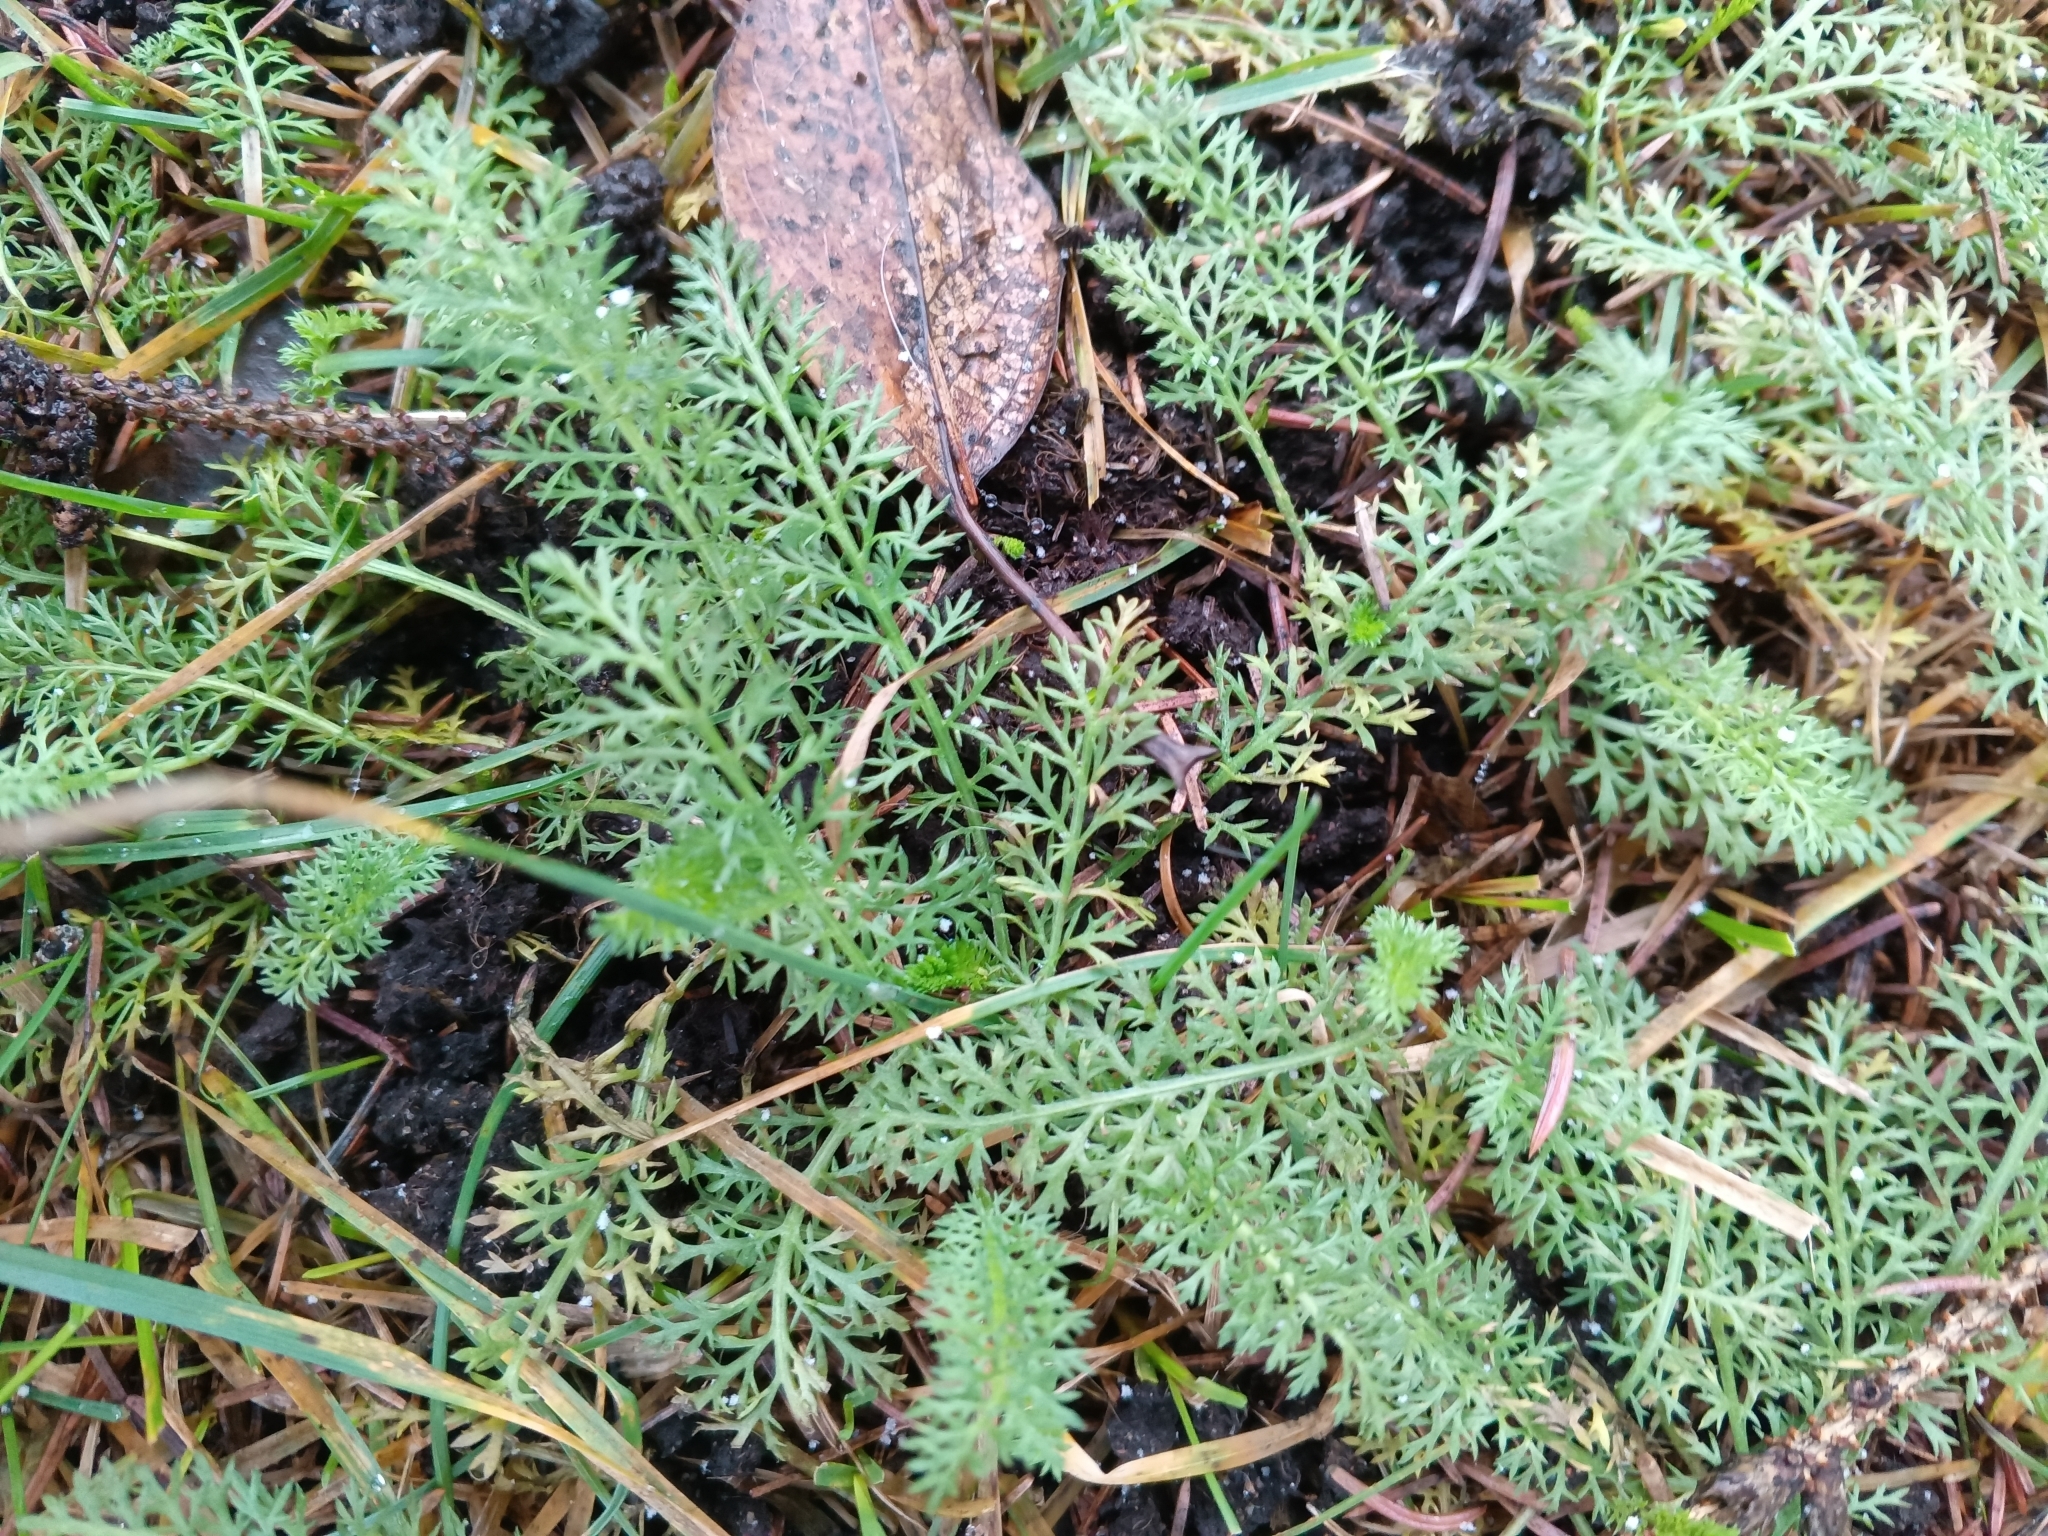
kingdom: Plantae
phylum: Tracheophyta
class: Magnoliopsida
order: Asterales
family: Asteraceae
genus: Achillea
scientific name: Achillea millefolium
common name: Yarrow
